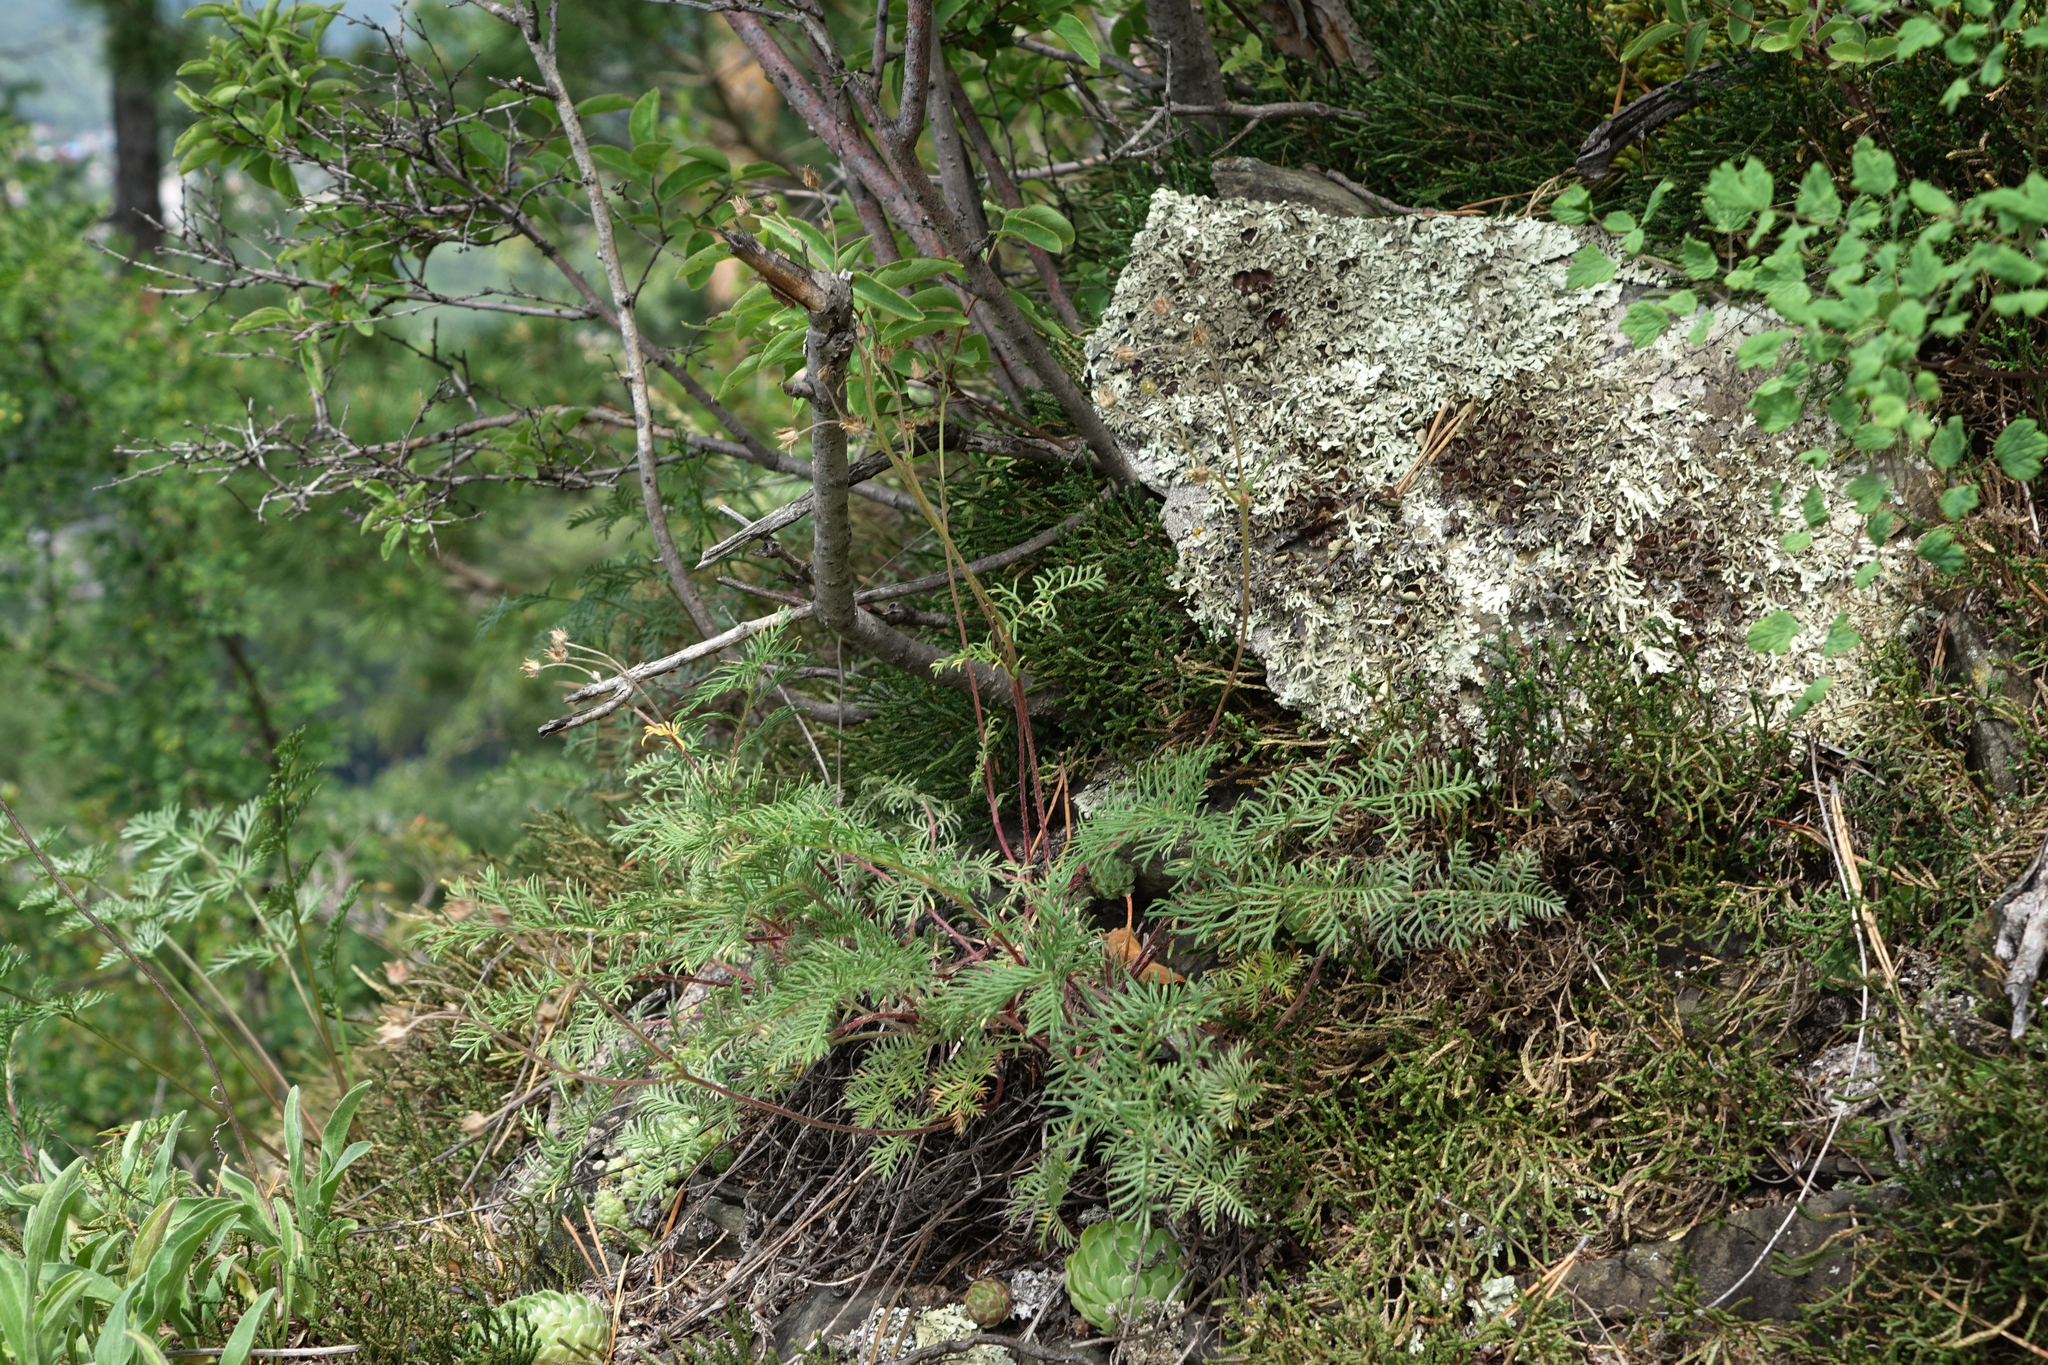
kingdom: Plantae
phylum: Tracheophyta
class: Magnoliopsida
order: Rosales
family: Rosaceae
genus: Potentilla
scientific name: Potentilla sericea
